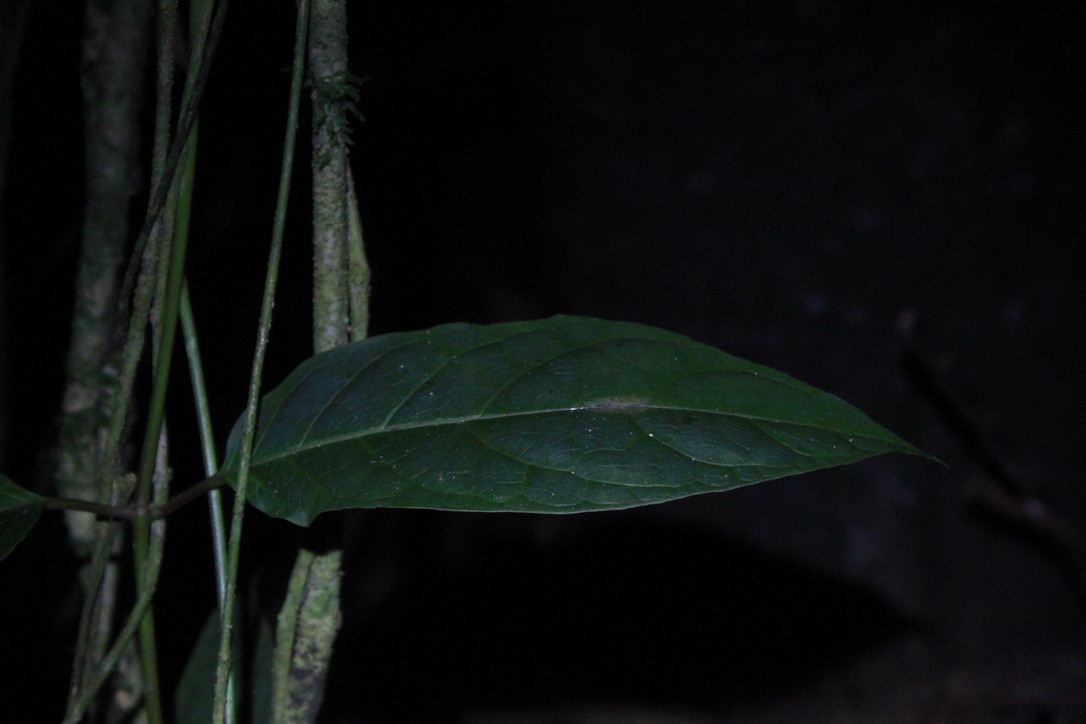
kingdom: Animalia
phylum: Arthropoda
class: Insecta
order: Lepidoptera
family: Nymphalidae
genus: Tithorea
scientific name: Tithorea harmonia
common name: Harmonia tigerwing
